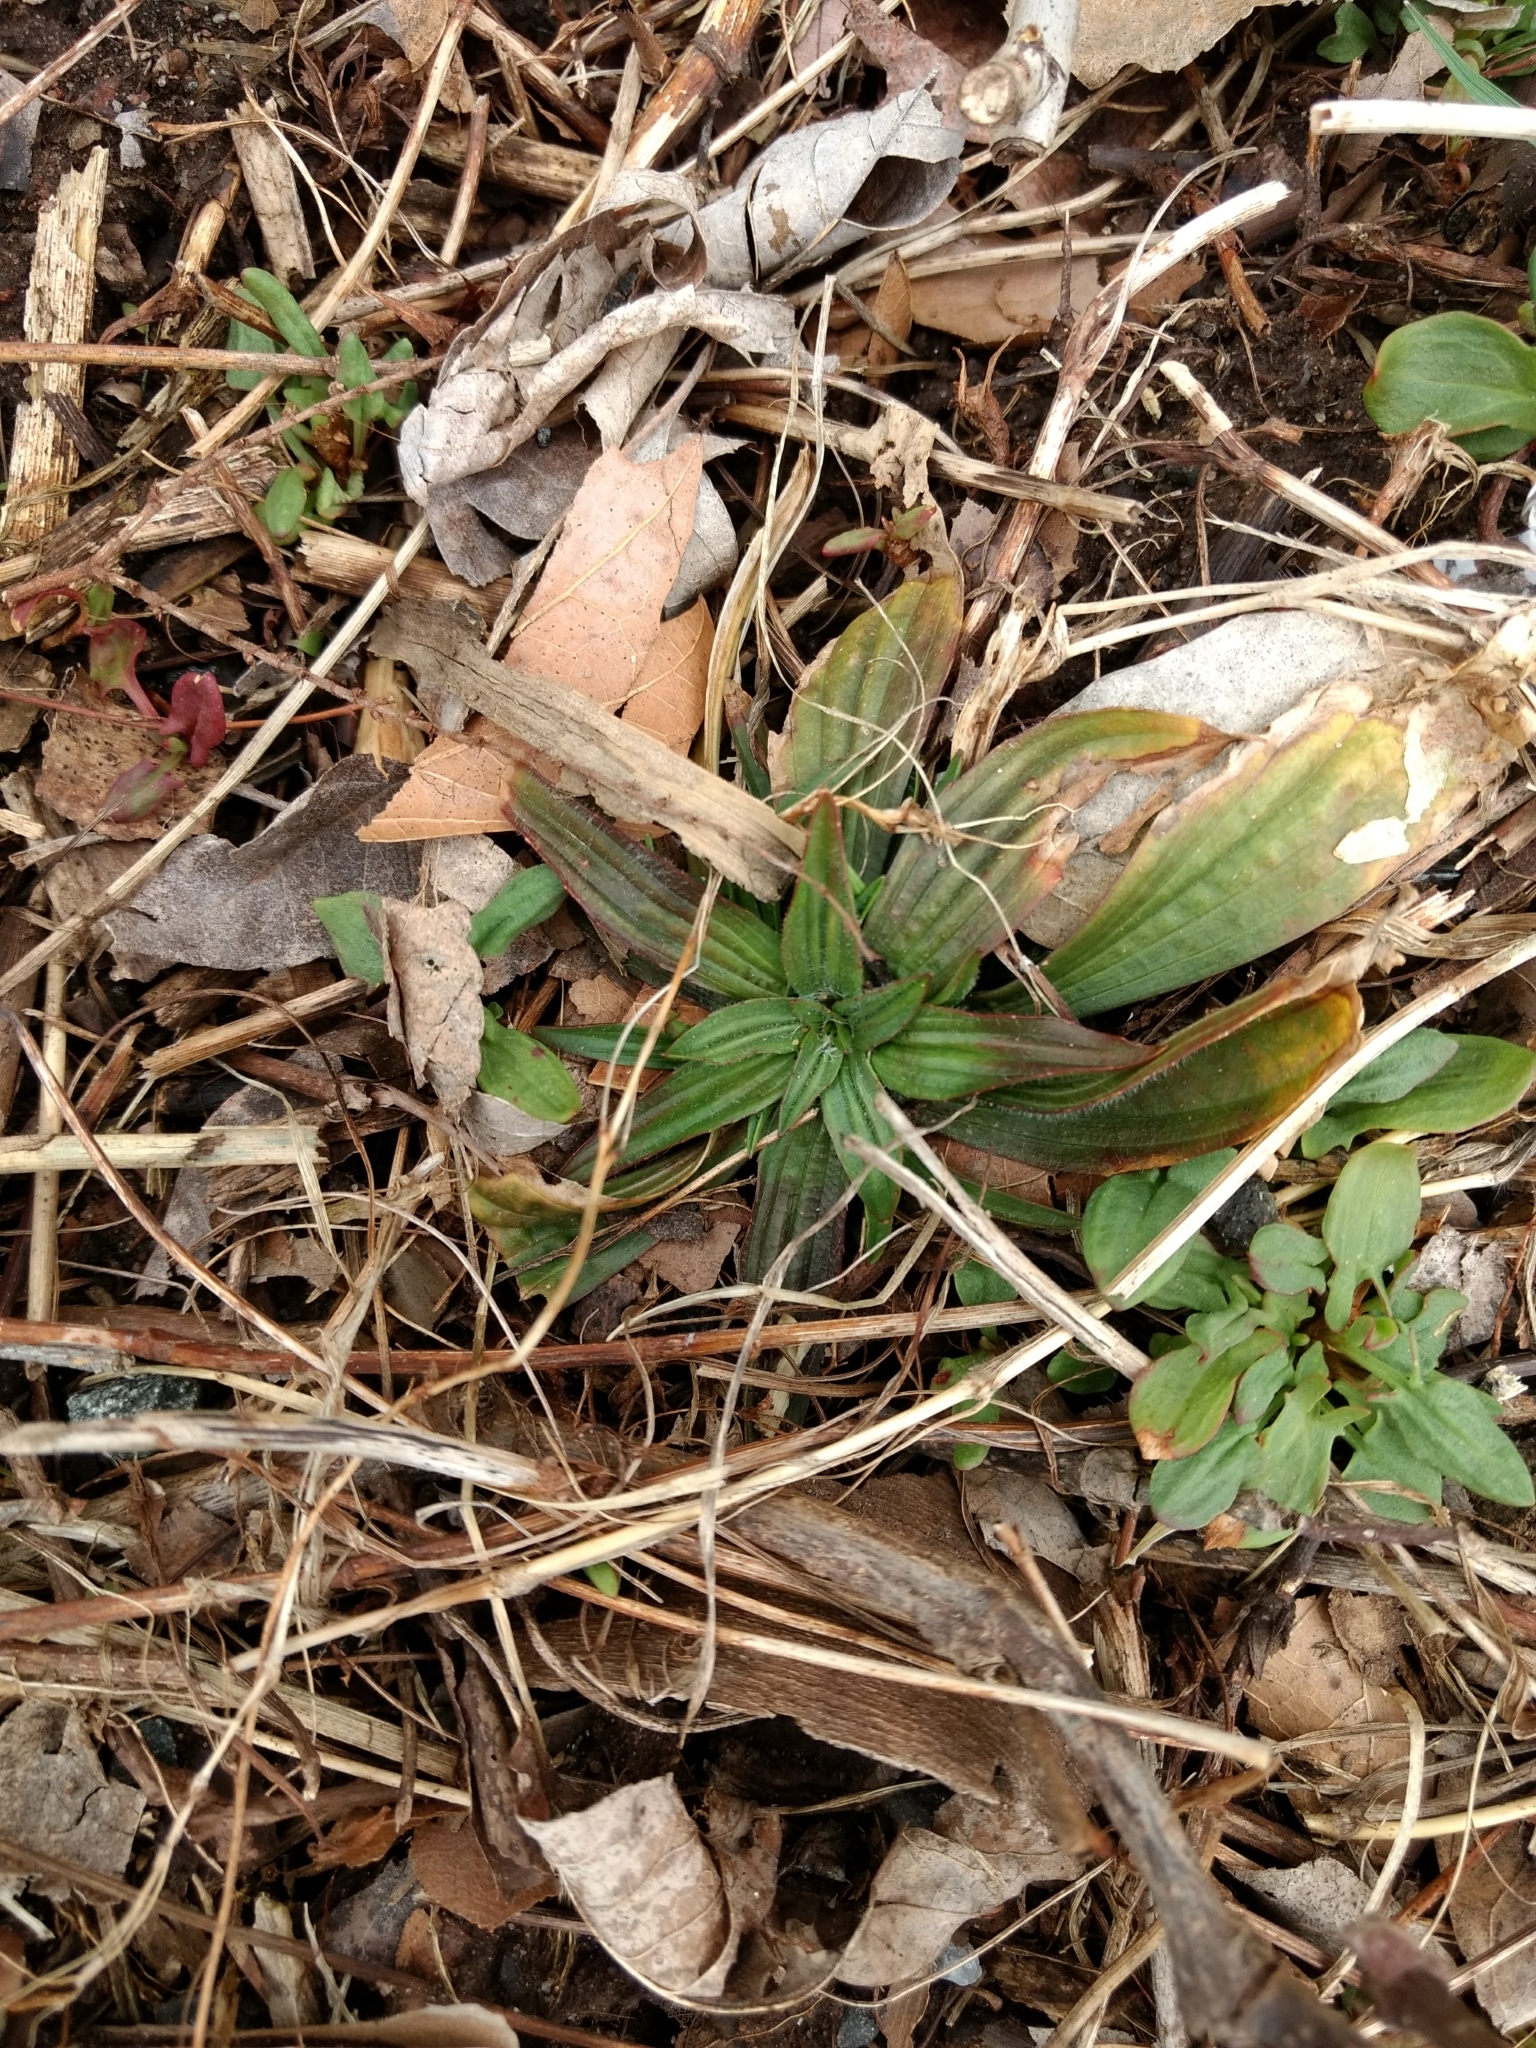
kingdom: Plantae
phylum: Tracheophyta
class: Magnoliopsida
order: Lamiales
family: Plantaginaceae
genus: Plantago
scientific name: Plantago lanceolata
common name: Ribwort plantain
